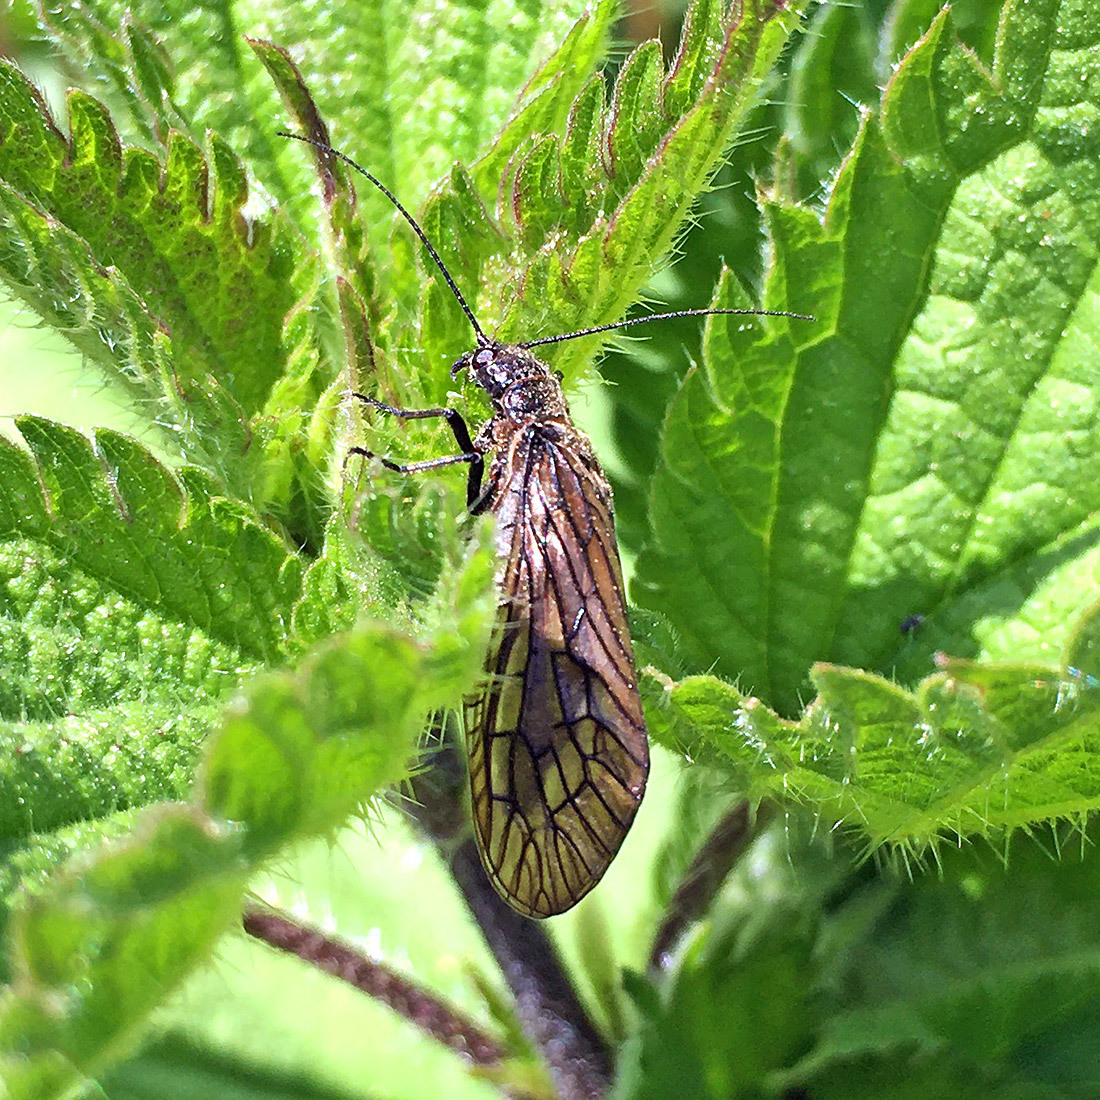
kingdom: Animalia
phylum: Arthropoda
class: Insecta
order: Megaloptera
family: Sialidae
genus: Sialis
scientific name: Sialis
